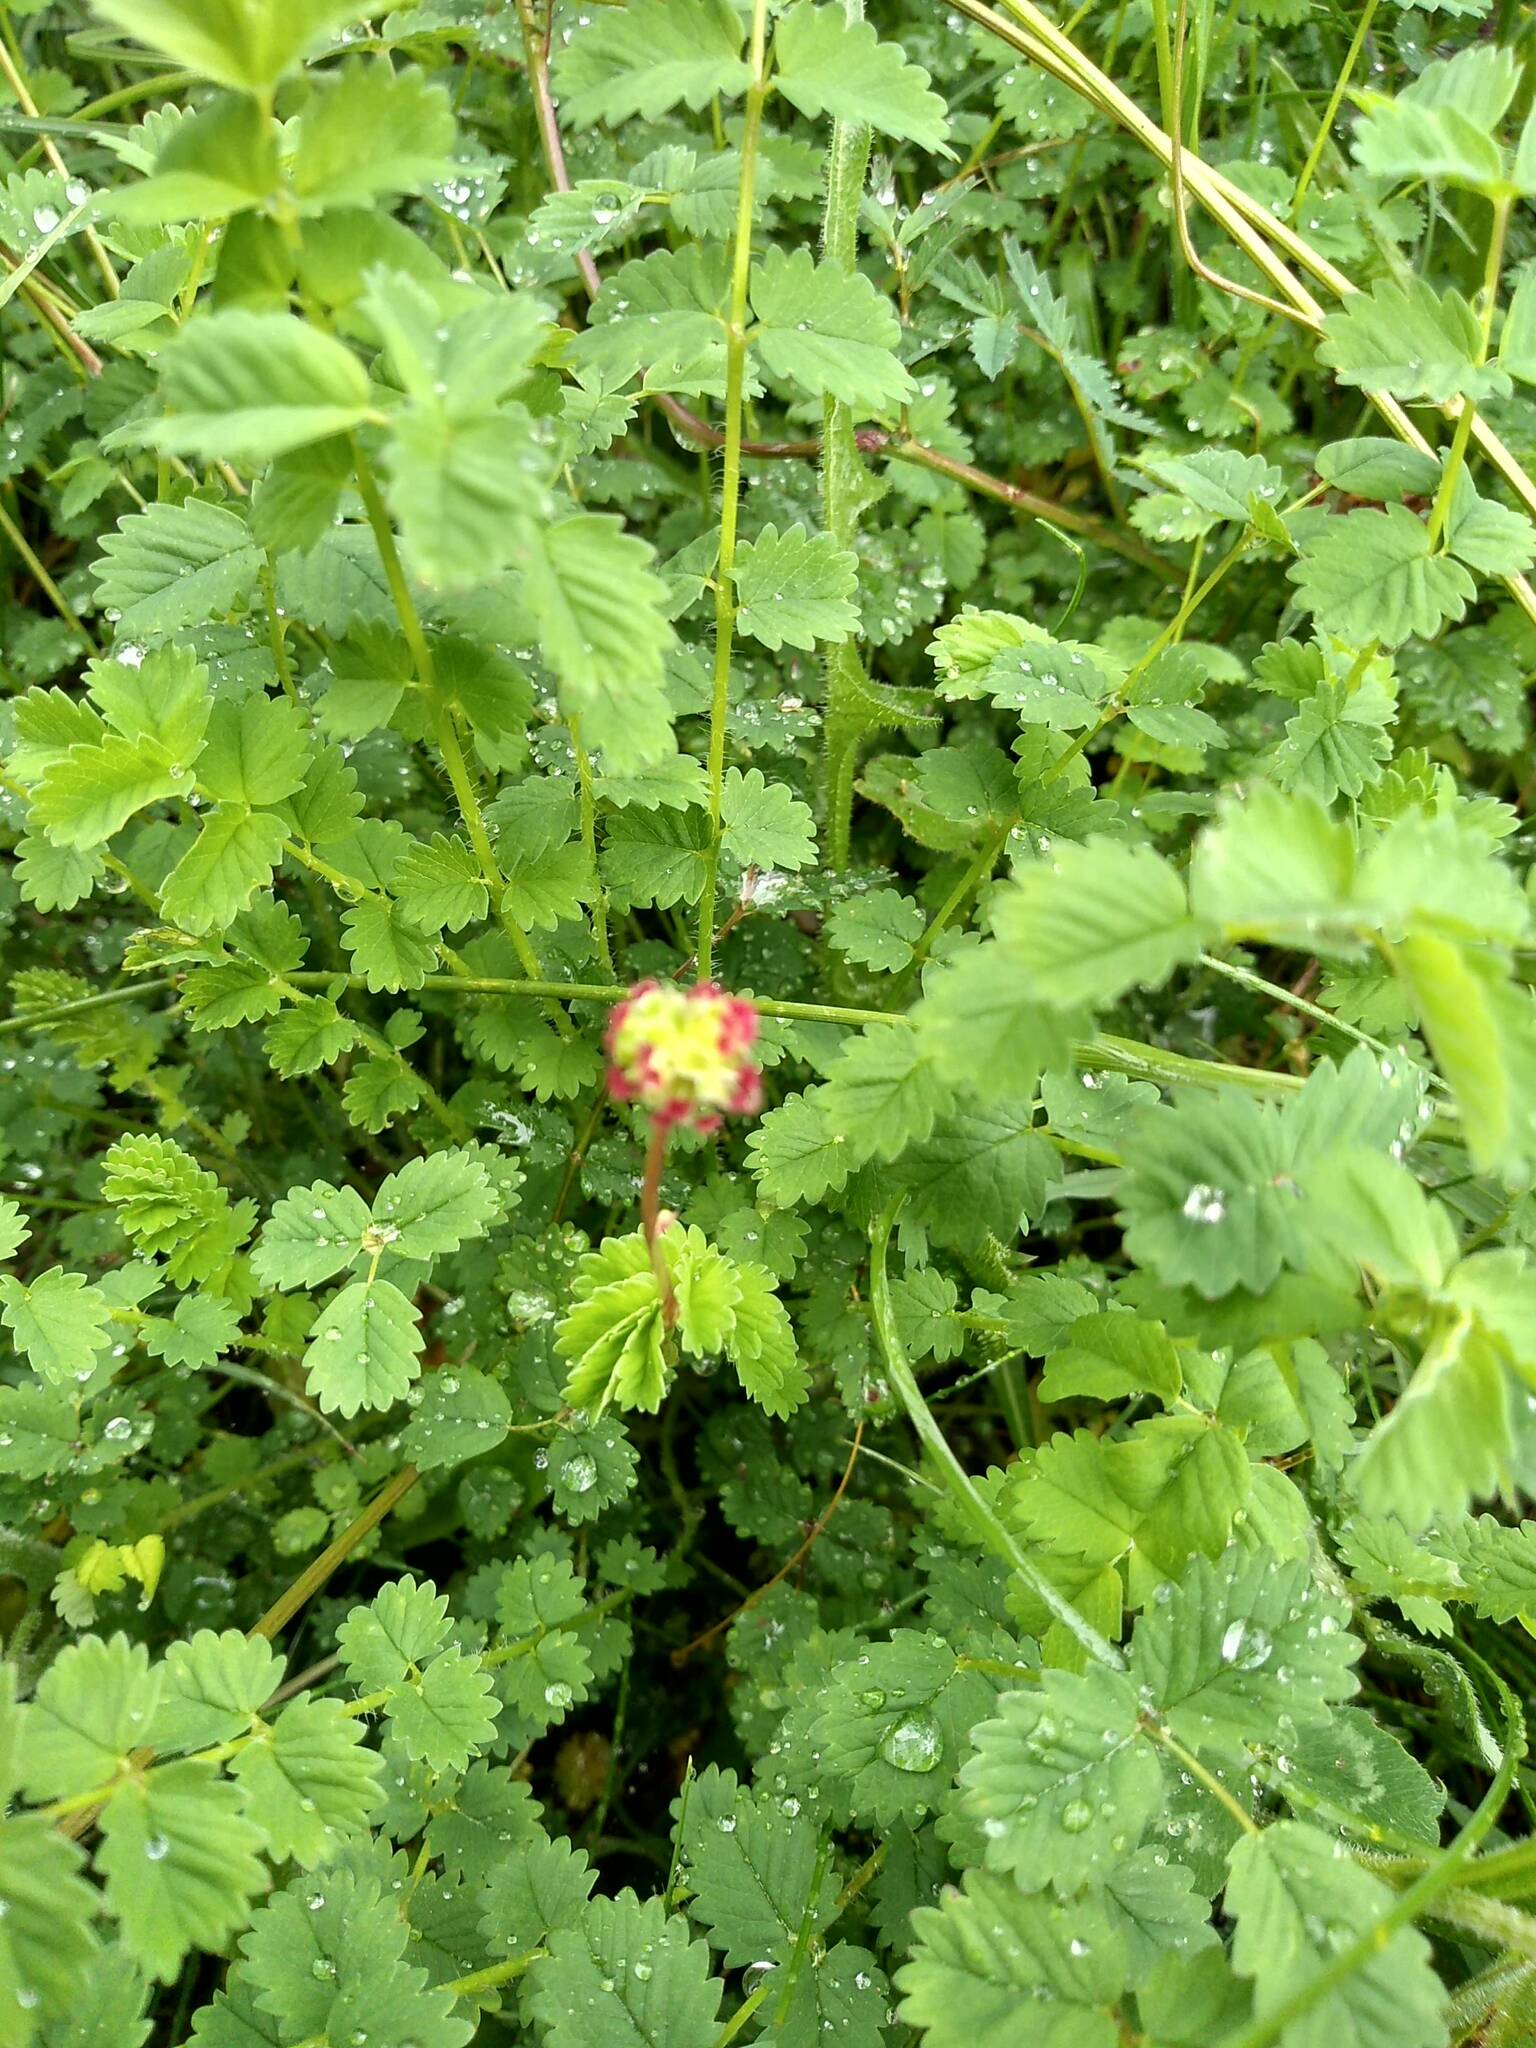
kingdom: Plantae
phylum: Tracheophyta
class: Magnoliopsida
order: Rosales
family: Rosaceae
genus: Poterium
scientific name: Poterium sanguisorba
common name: Salad burnet
